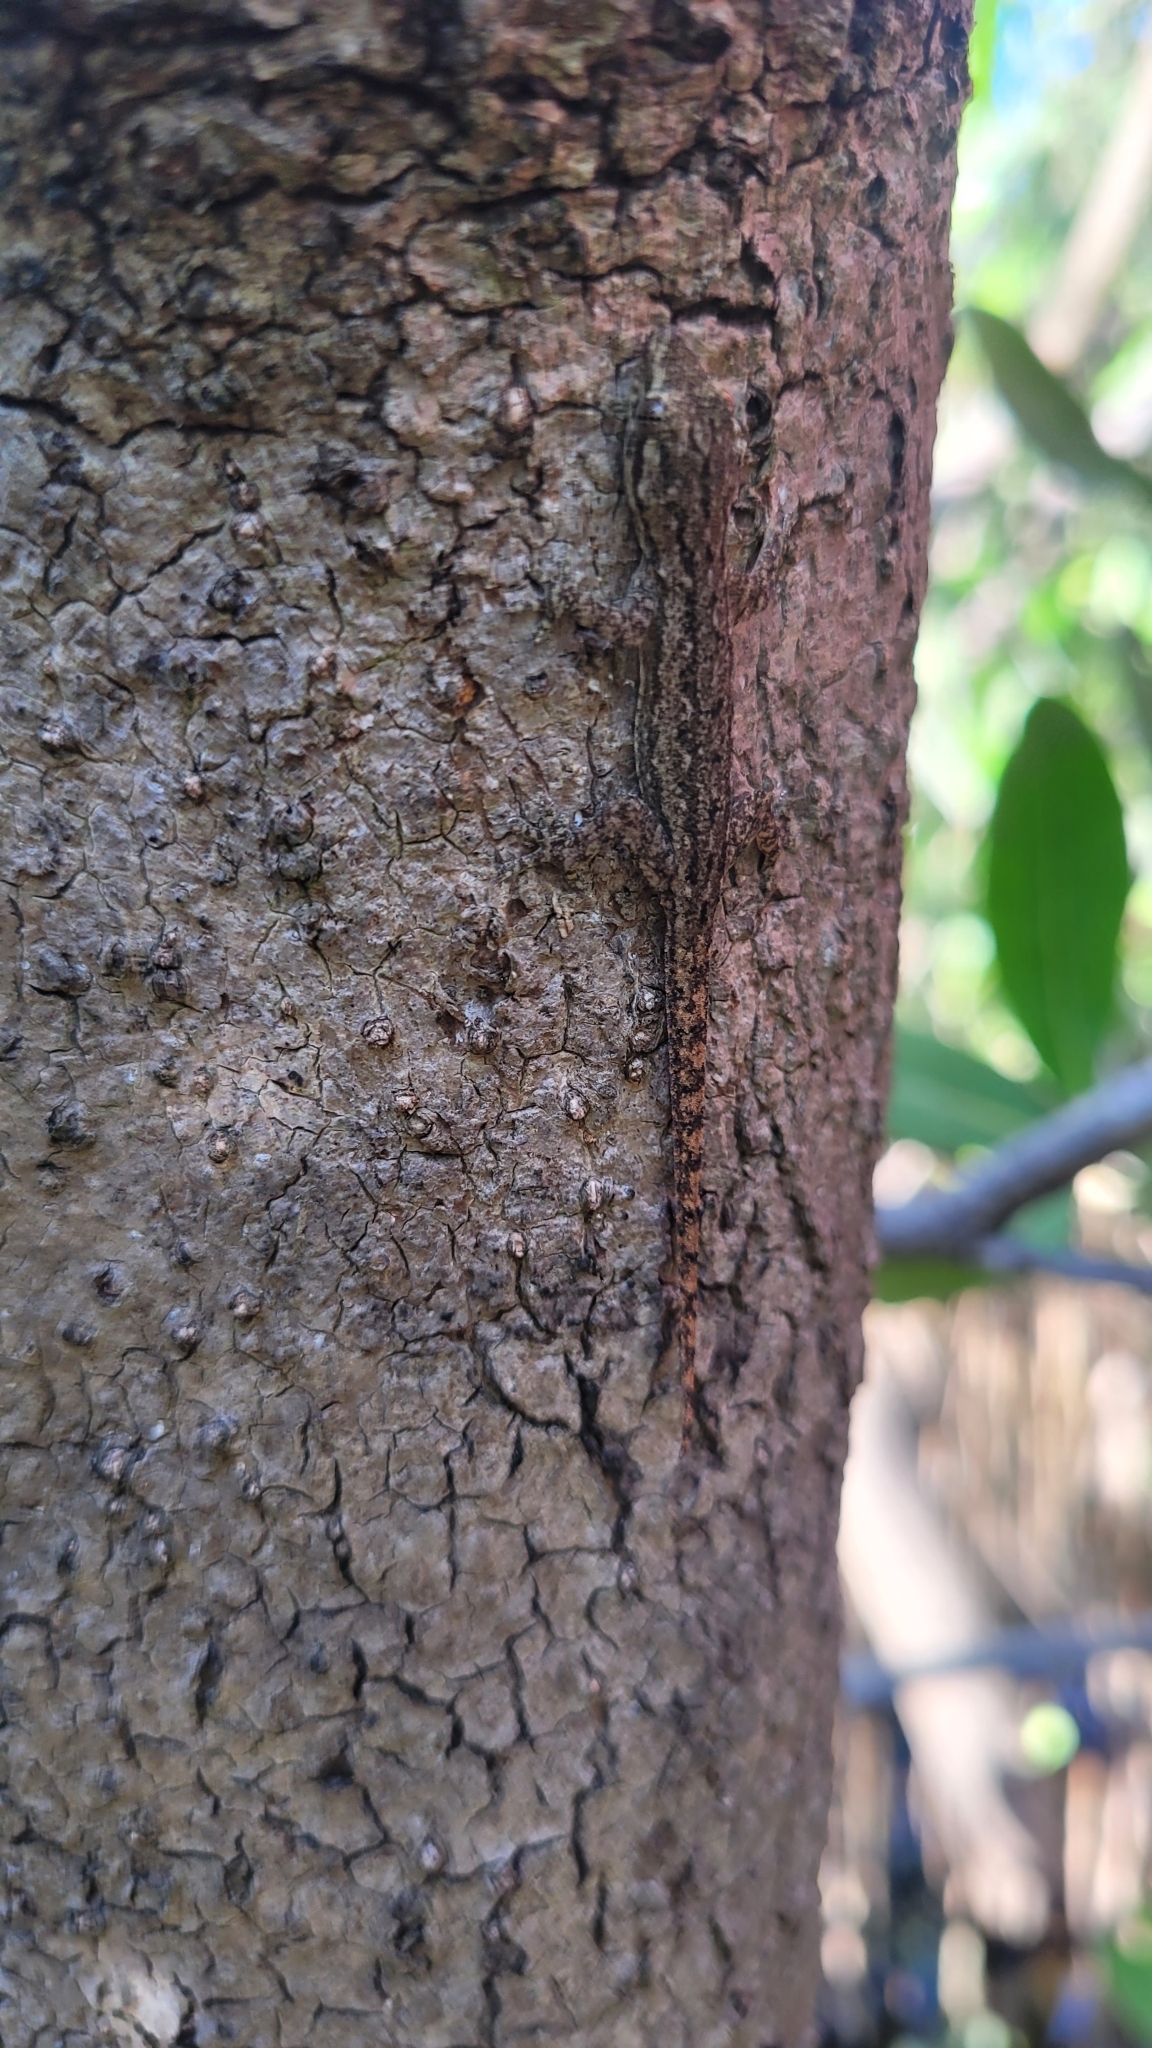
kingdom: Animalia
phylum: Chordata
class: Squamata
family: Gekkonidae
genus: Hemidactylus
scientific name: Hemidactylus frenatus
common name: Common house gecko
